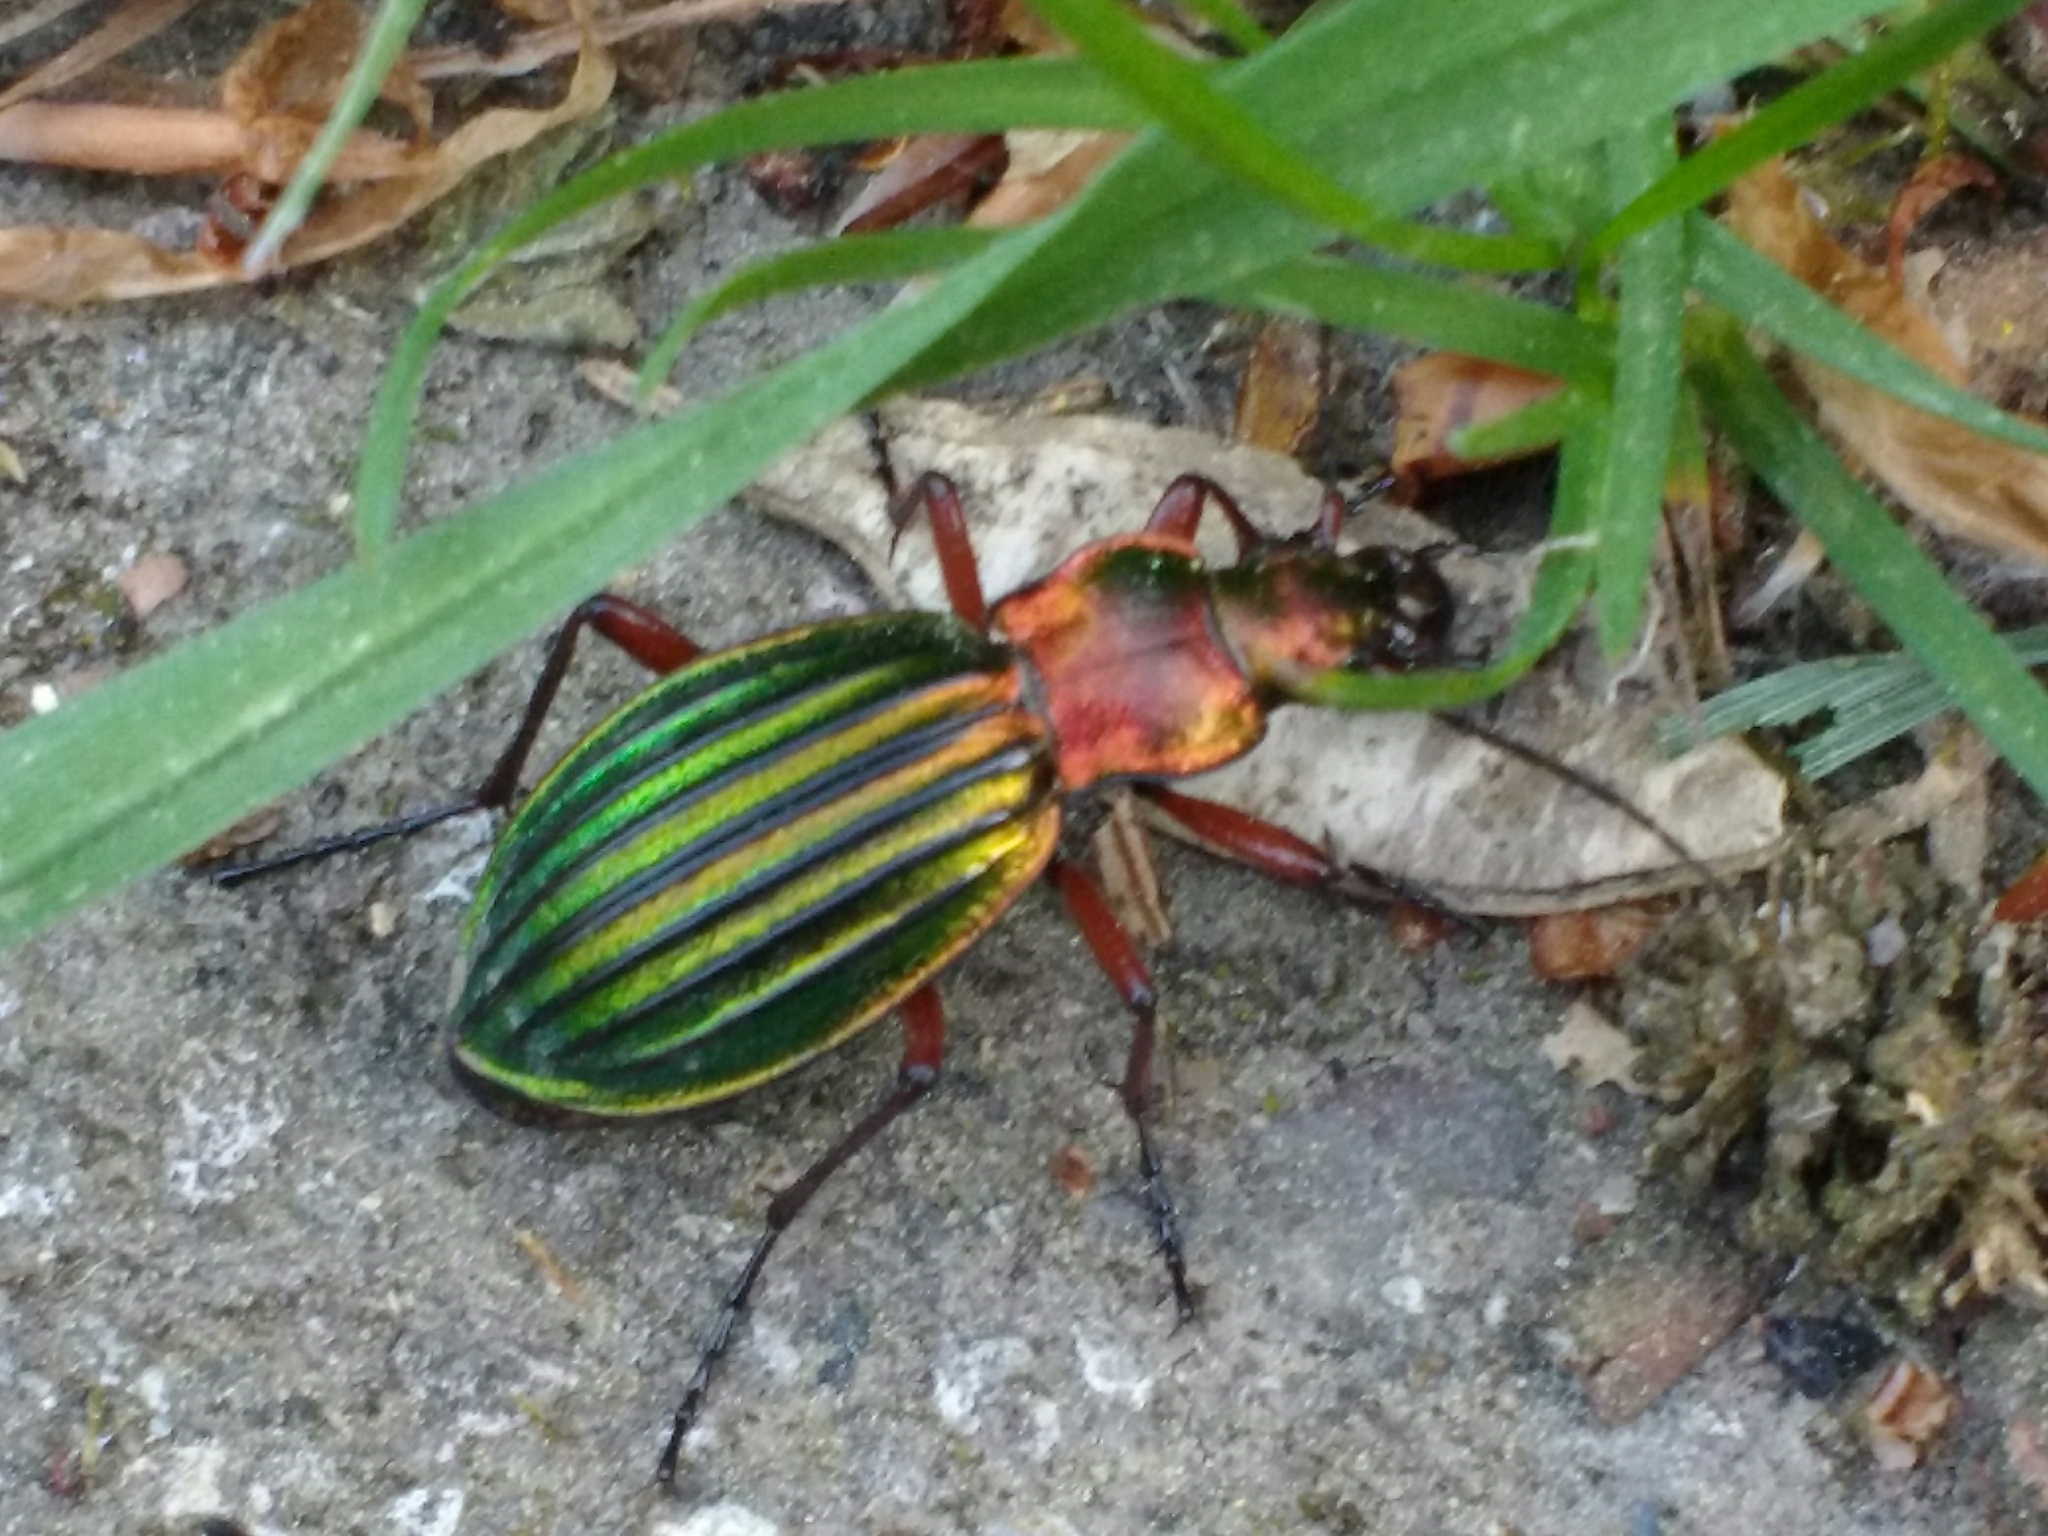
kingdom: Animalia
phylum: Arthropoda
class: Insecta
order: Coleoptera
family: Carabidae
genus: Carabus
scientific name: Carabus auronitens
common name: Carabus auronitens
